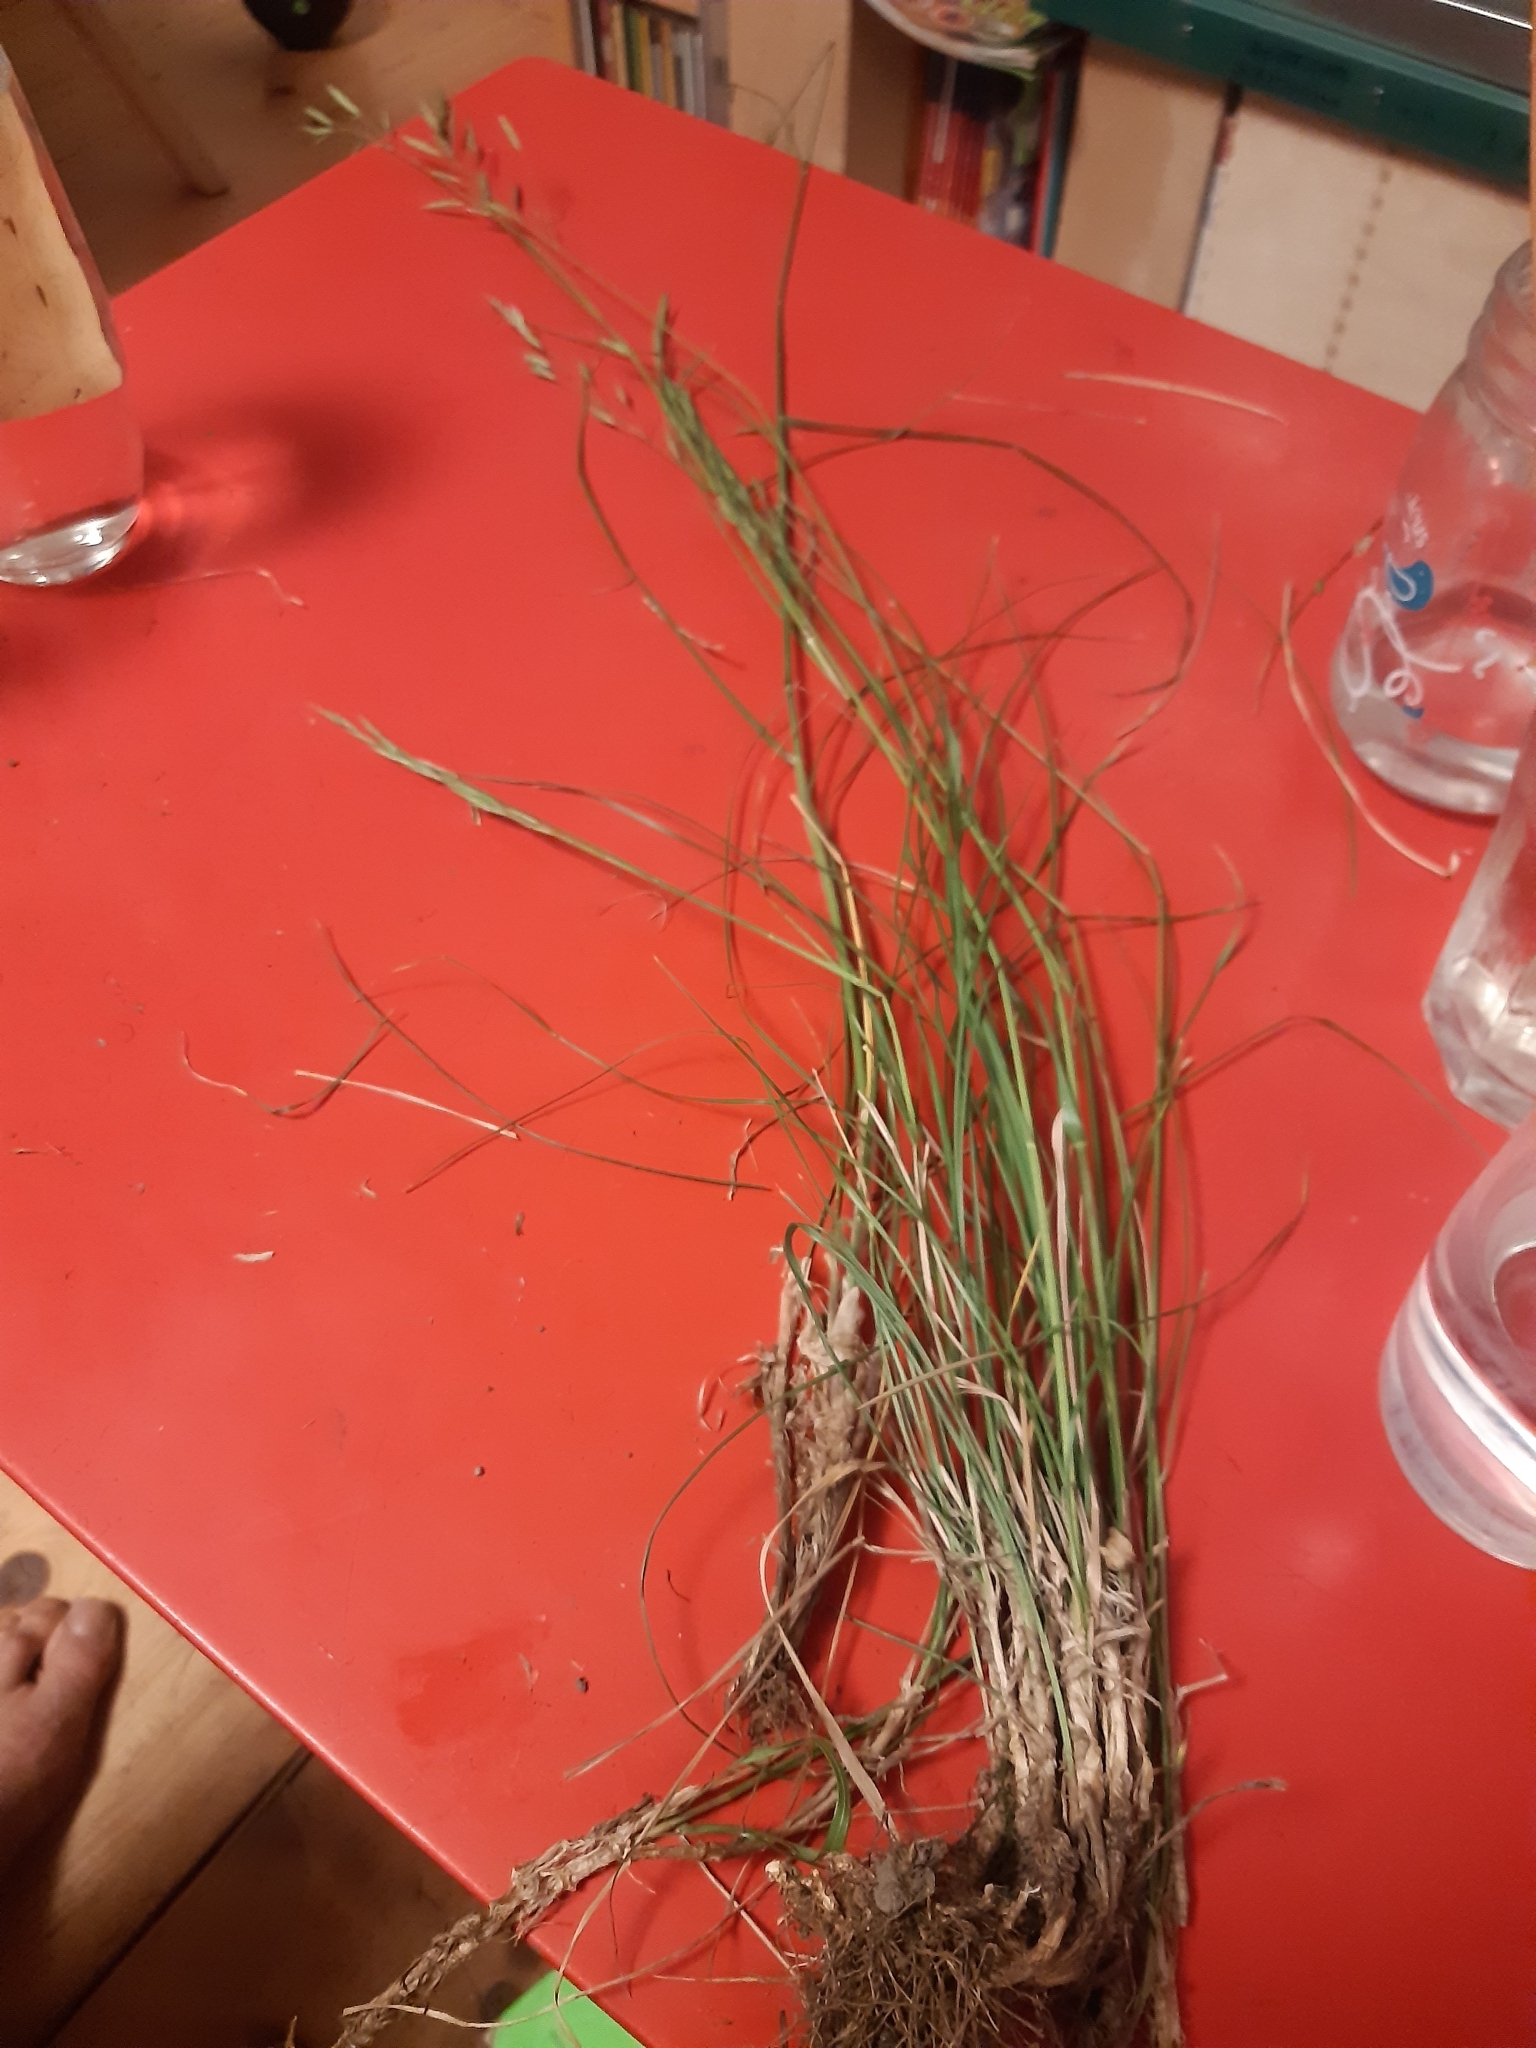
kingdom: Plantae
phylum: Tracheophyta
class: Liliopsida
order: Poales
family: Poaceae
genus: Bromus
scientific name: Bromus erectus
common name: Erect brome
